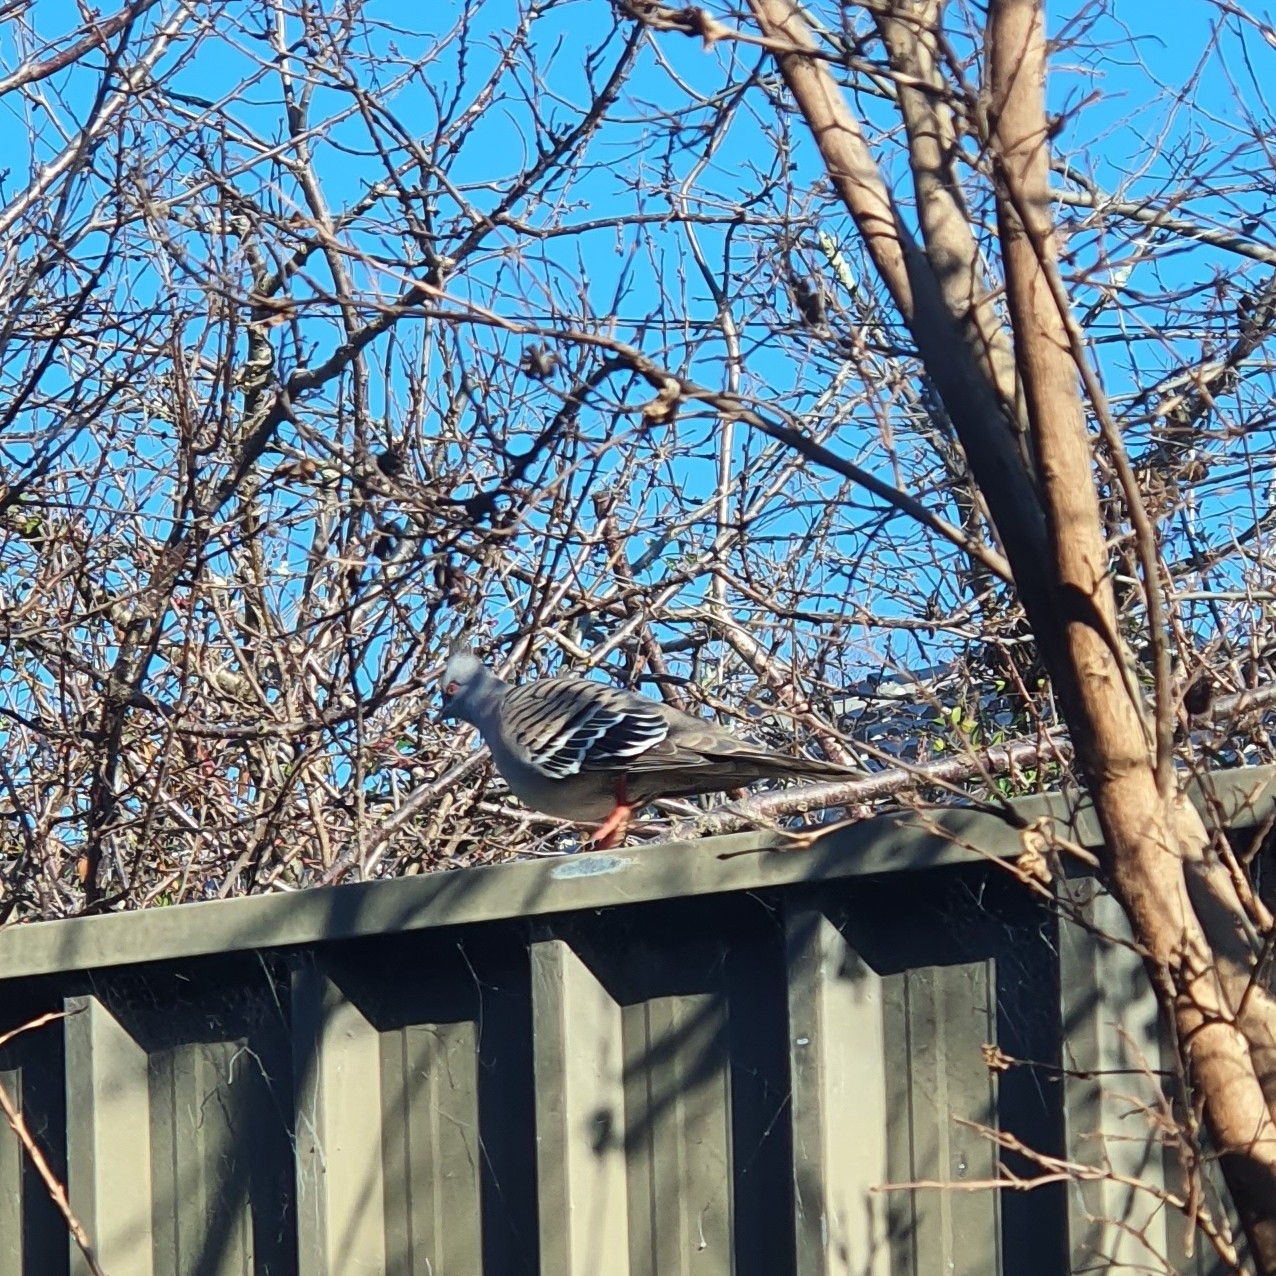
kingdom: Animalia
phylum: Chordata
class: Aves
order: Columbiformes
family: Columbidae
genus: Ocyphaps
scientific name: Ocyphaps lophotes
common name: Crested pigeon
